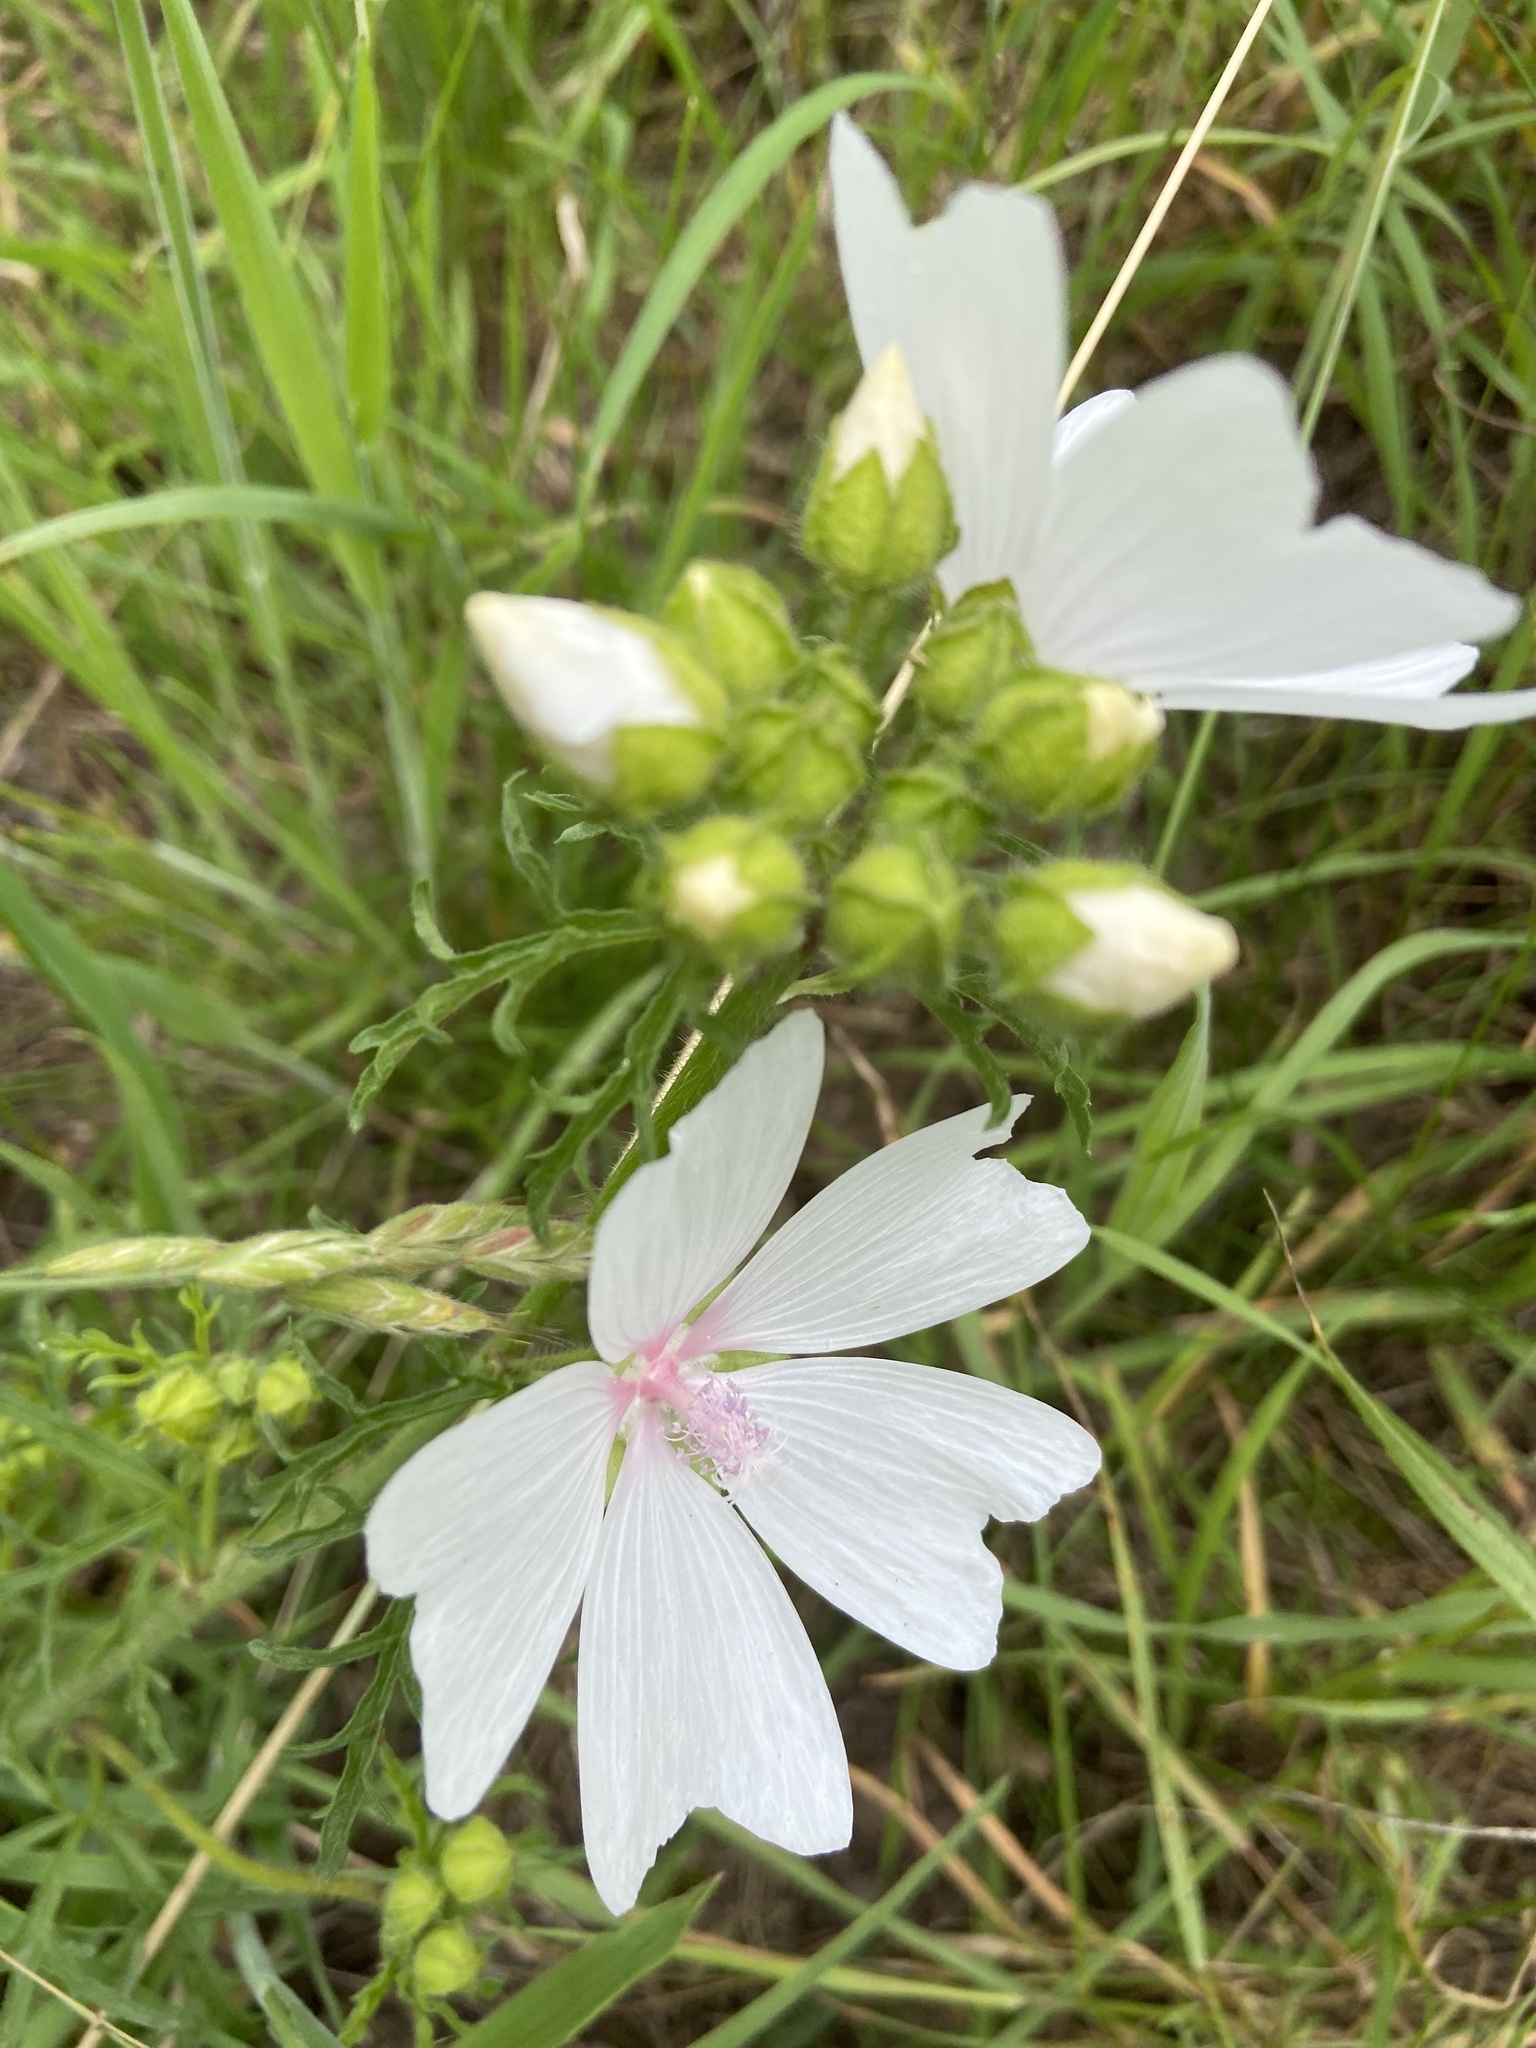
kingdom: Plantae
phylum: Tracheophyta
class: Magnoliopsida
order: Malvales
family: Malvaceae
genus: Malva
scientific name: Malva moschata
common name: Musk mallow
